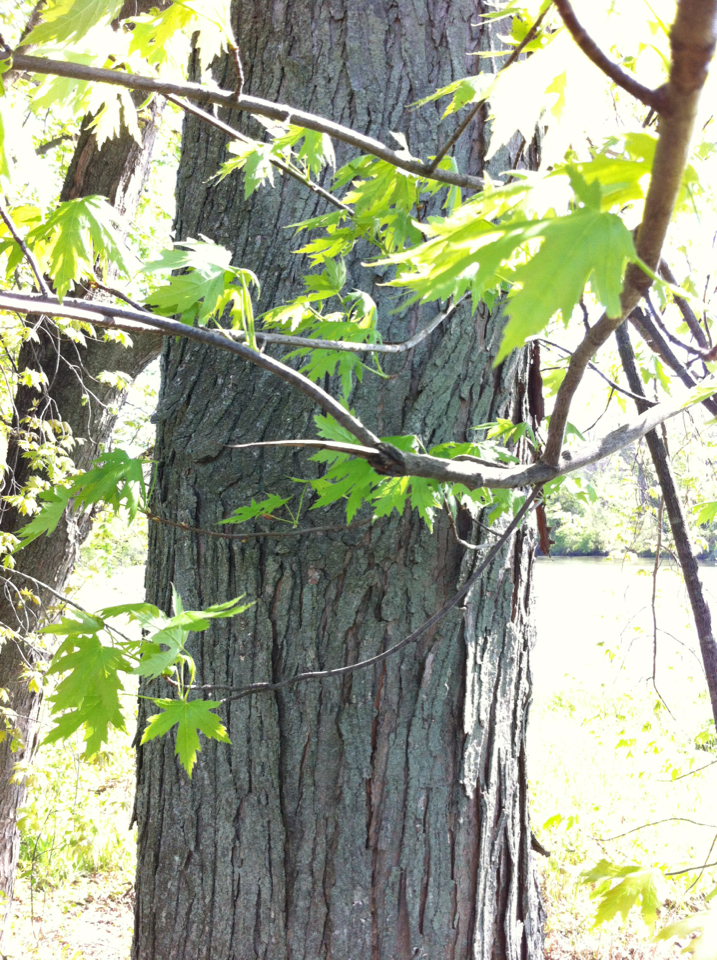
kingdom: Plantae
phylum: Tracheophyta
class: Magnoliopsida
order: Sapindales
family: Sapindaceae
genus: Acer
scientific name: Acer saccharinum
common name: Silver maple
